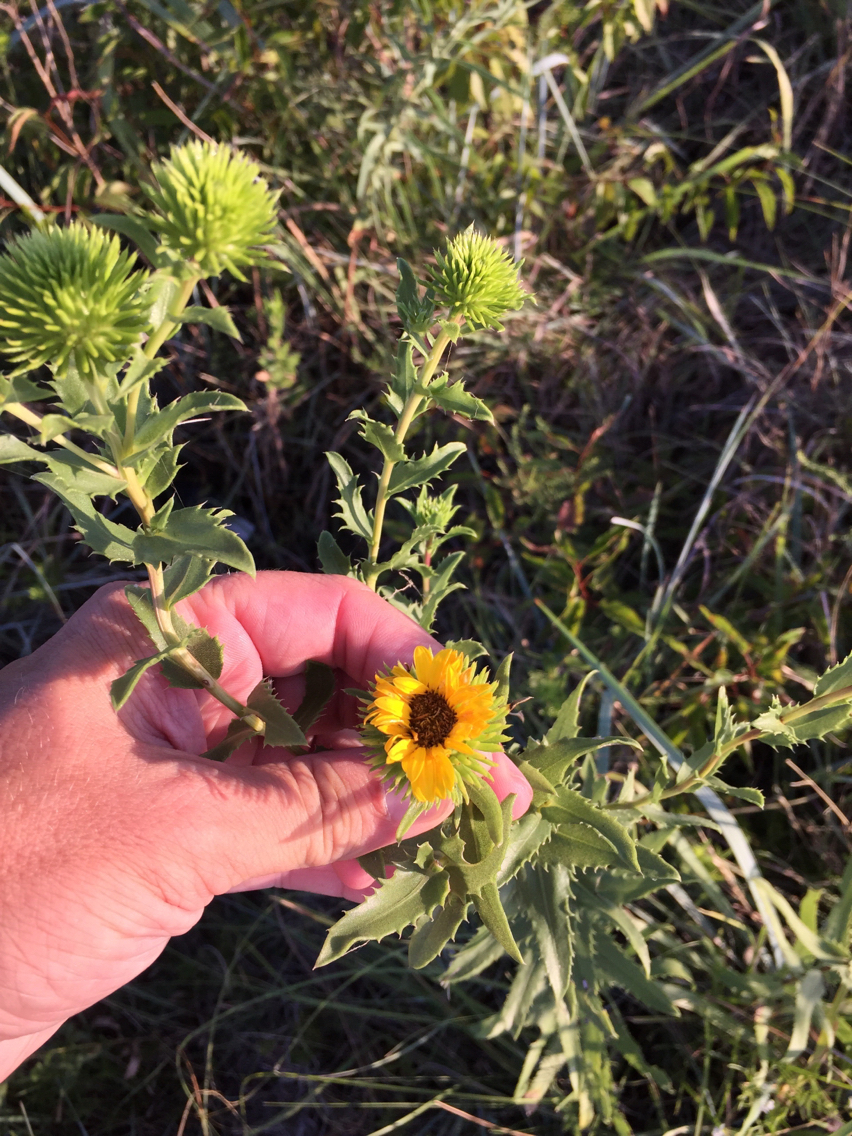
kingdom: Plantae
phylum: Tracheophyta
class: Magnoliopsida
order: Asterales
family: Asteraceae
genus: Grindelia
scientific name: Grindelia lanceolata
